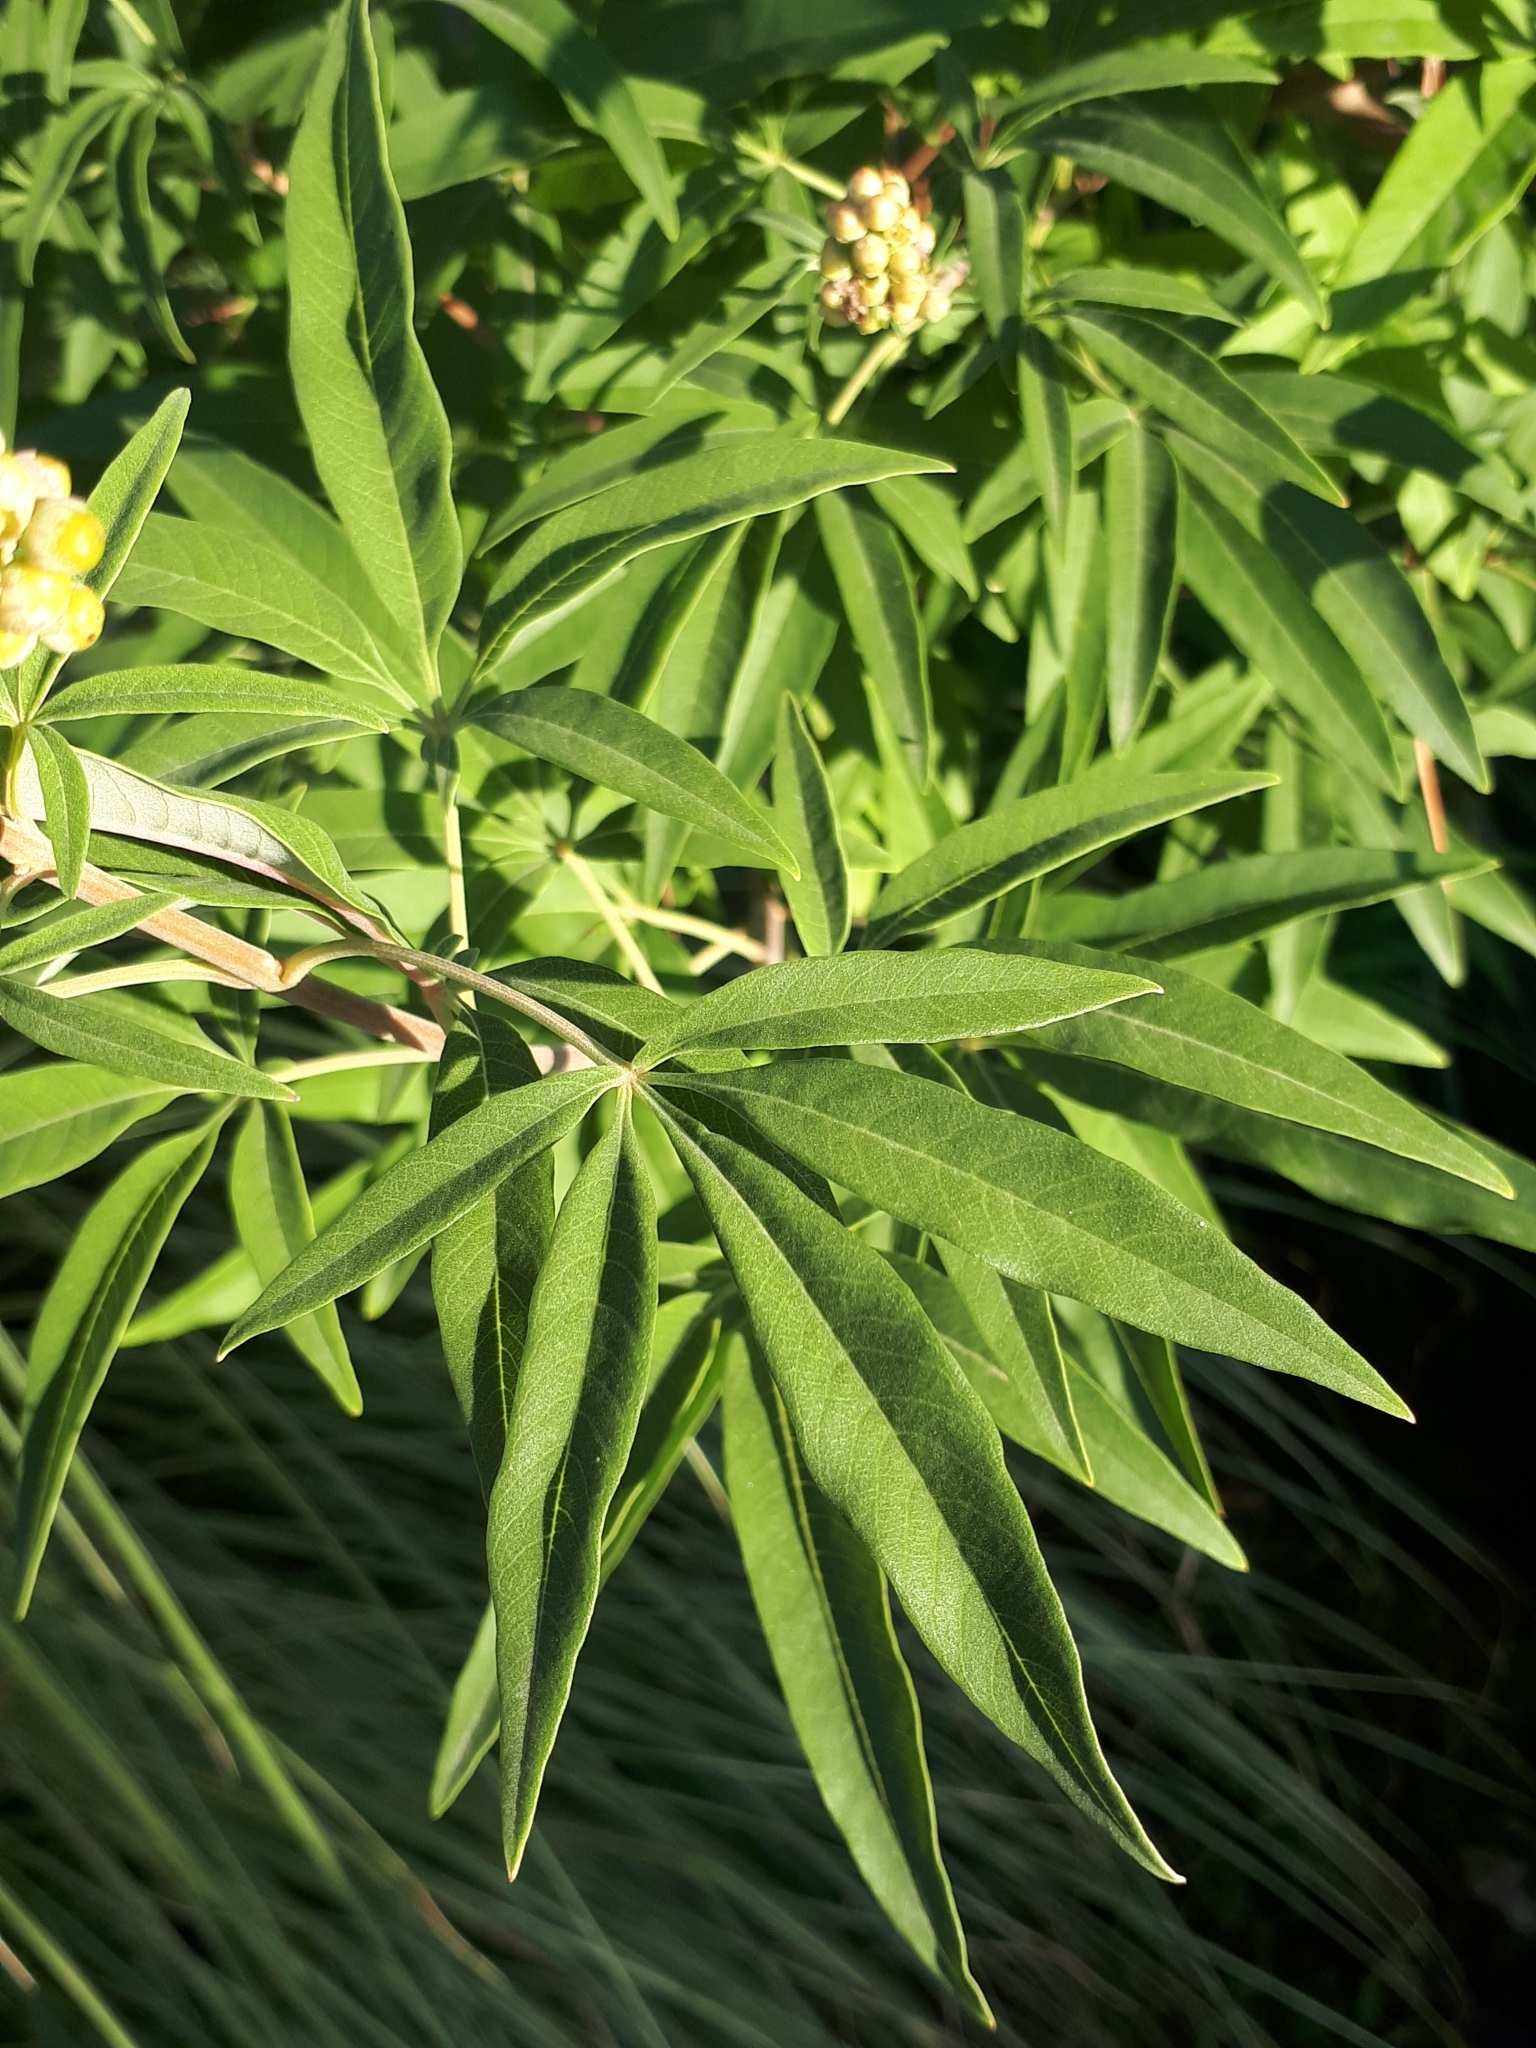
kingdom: Plantae
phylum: Tracheophyta
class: Magnoliopsida
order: Lamiales
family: Lamiaceae
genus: Vitex
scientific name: Vitex agnus-castus
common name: Chasteberry
